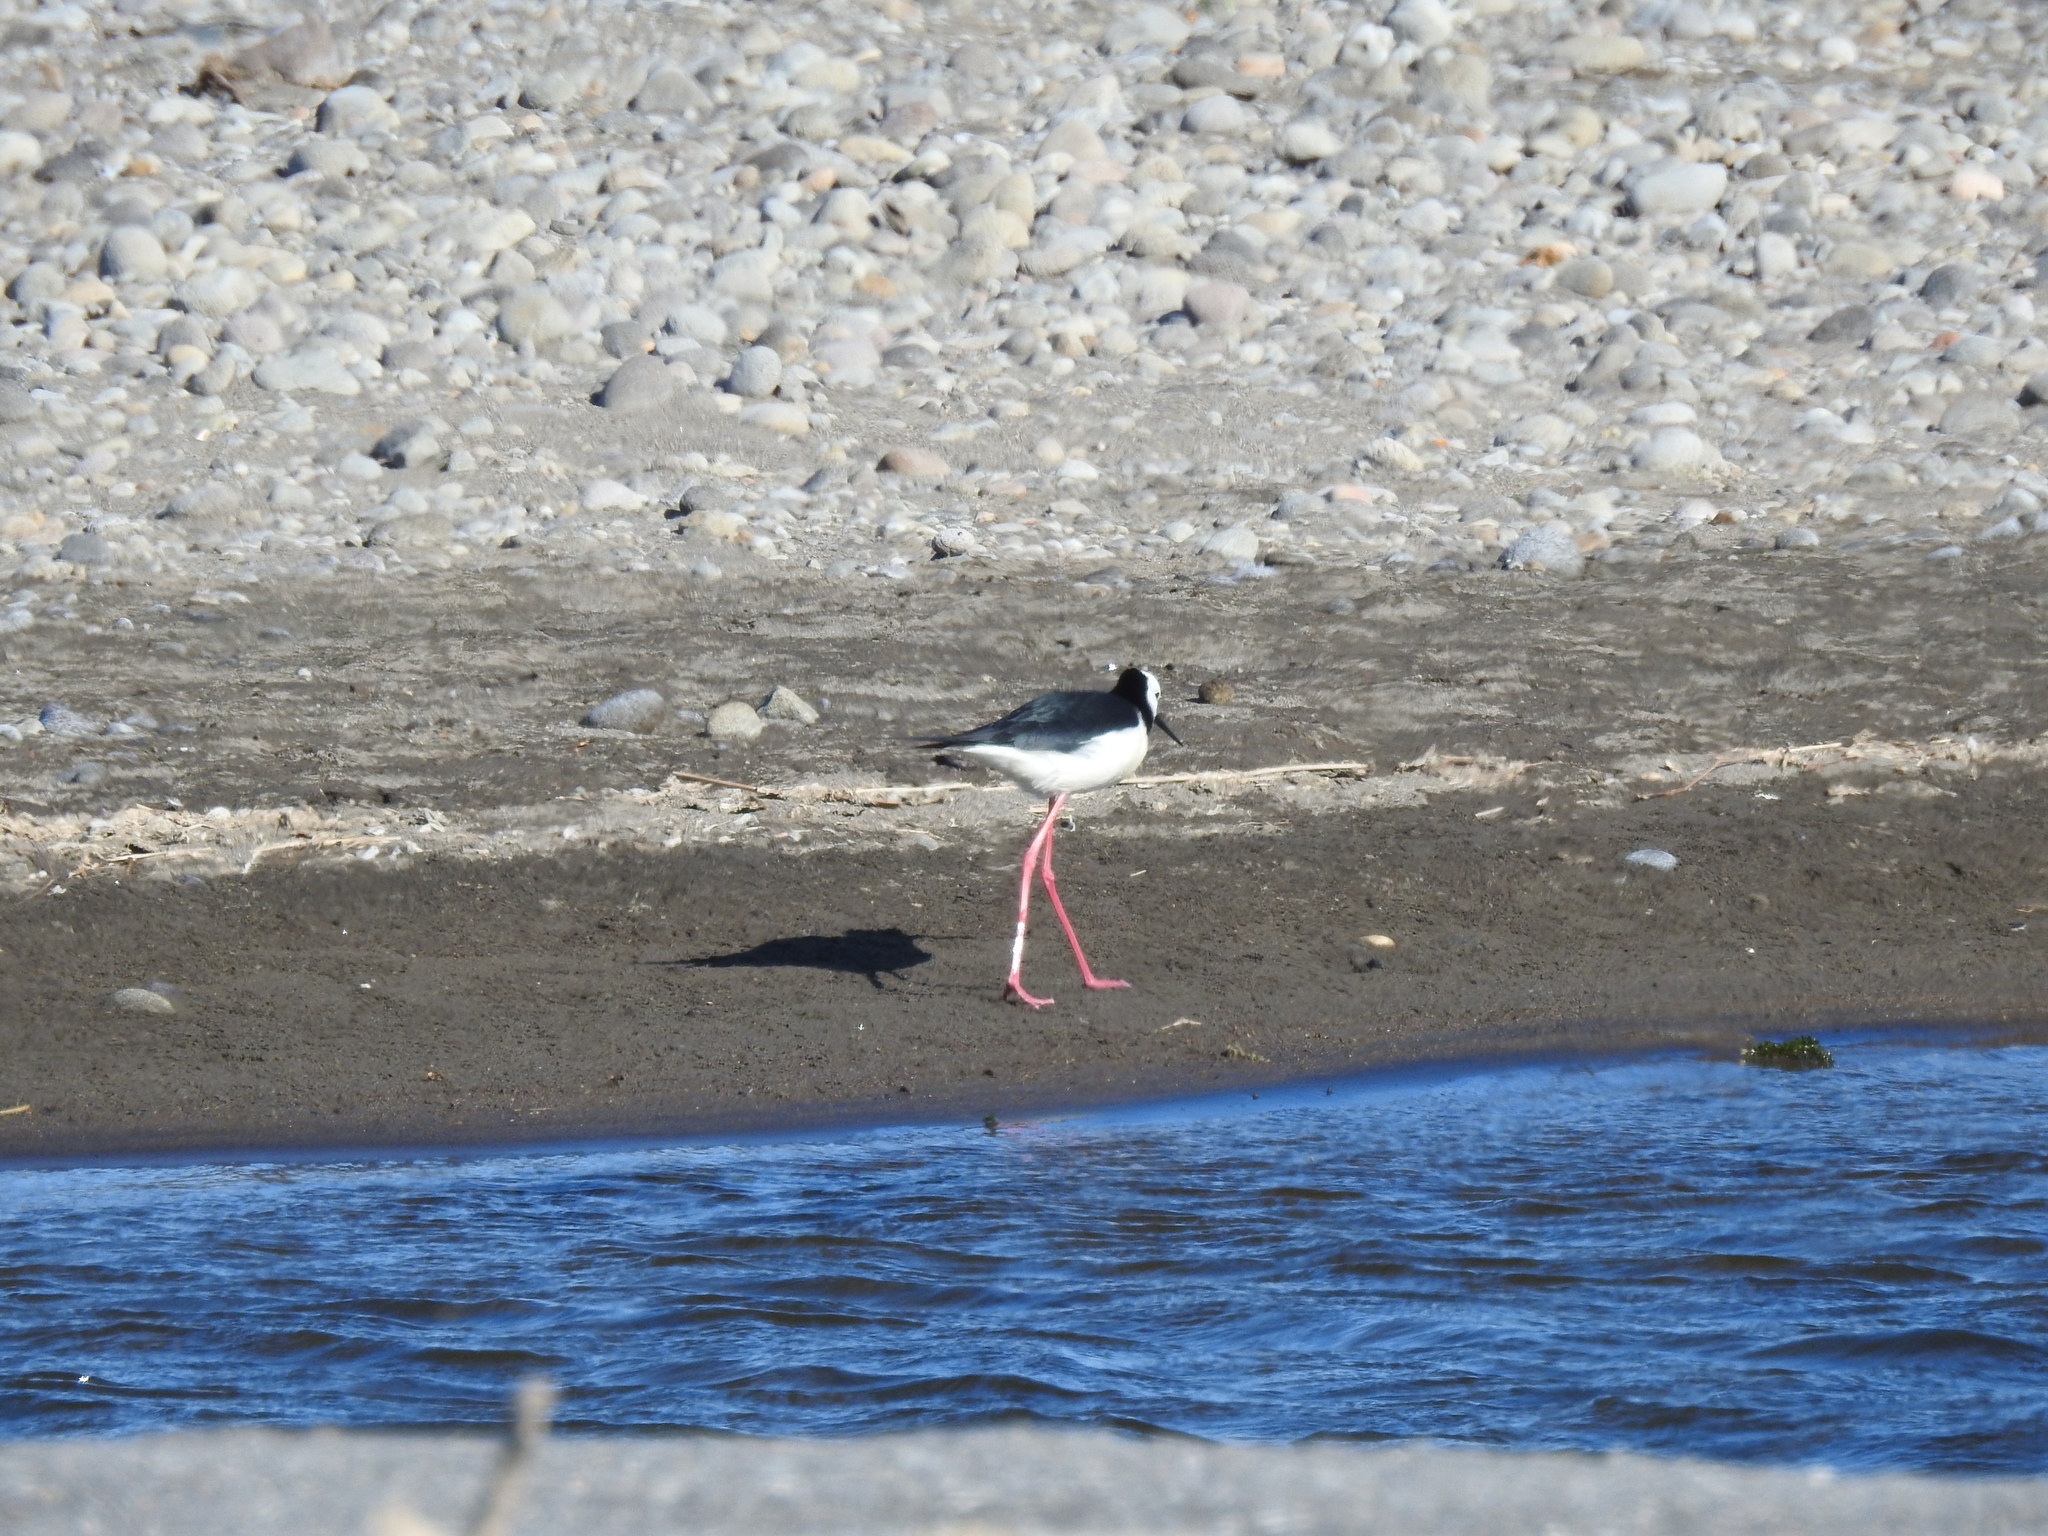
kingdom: Animalia
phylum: Chordata
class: Aves
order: Charadriiformes
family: Recurvirostridae
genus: Himantopus
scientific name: Himantopus leucocephalus
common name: White-headed stilt
